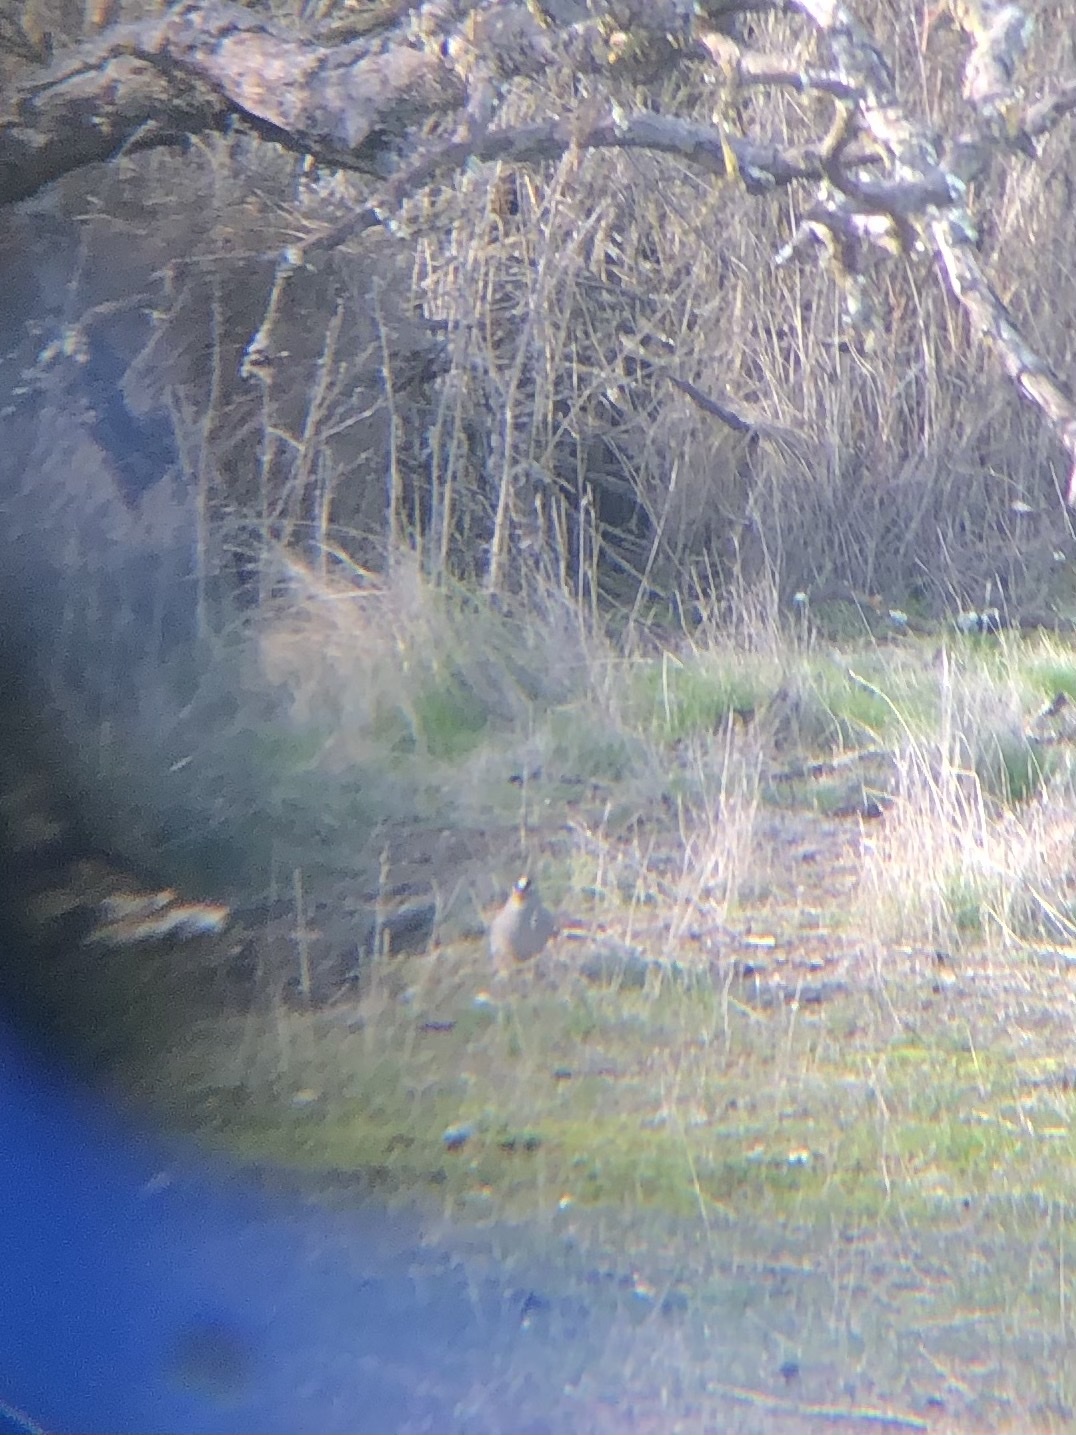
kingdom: Animalia
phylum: Chordata
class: Aves
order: Passeriformes
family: Passerellidae
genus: Zonotrichia
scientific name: Zonotrichia leucophrys
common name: White-crowned sparrow
